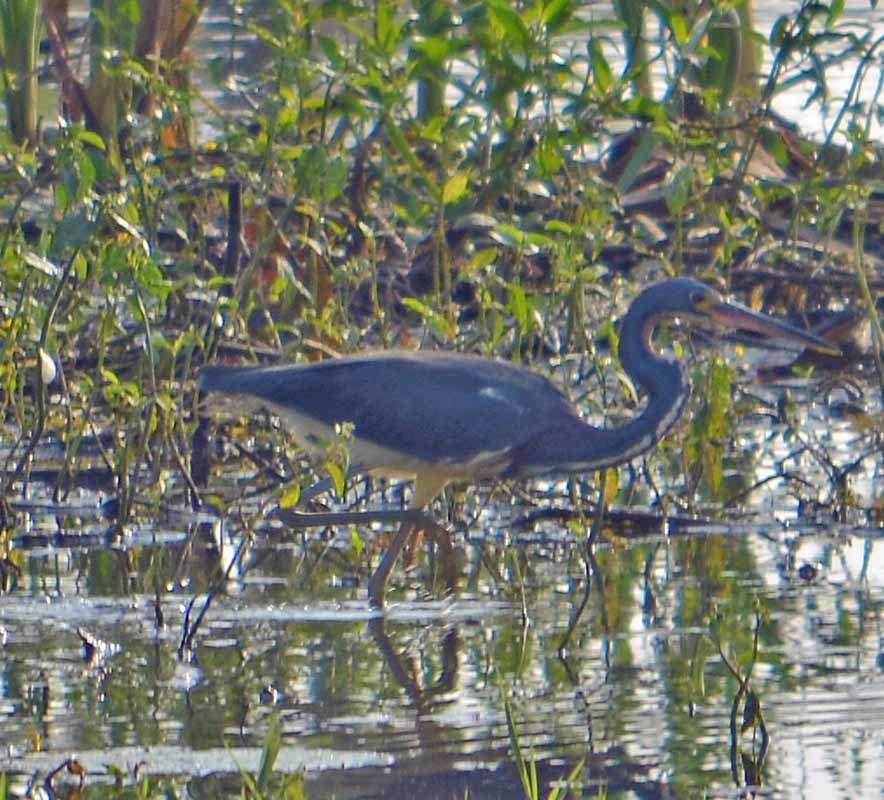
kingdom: Animalia
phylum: Chordata
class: Aves
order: Pelecaniformes
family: Ardeidae
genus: Egretta
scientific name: Egretta tricolor
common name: Tricolored heron
